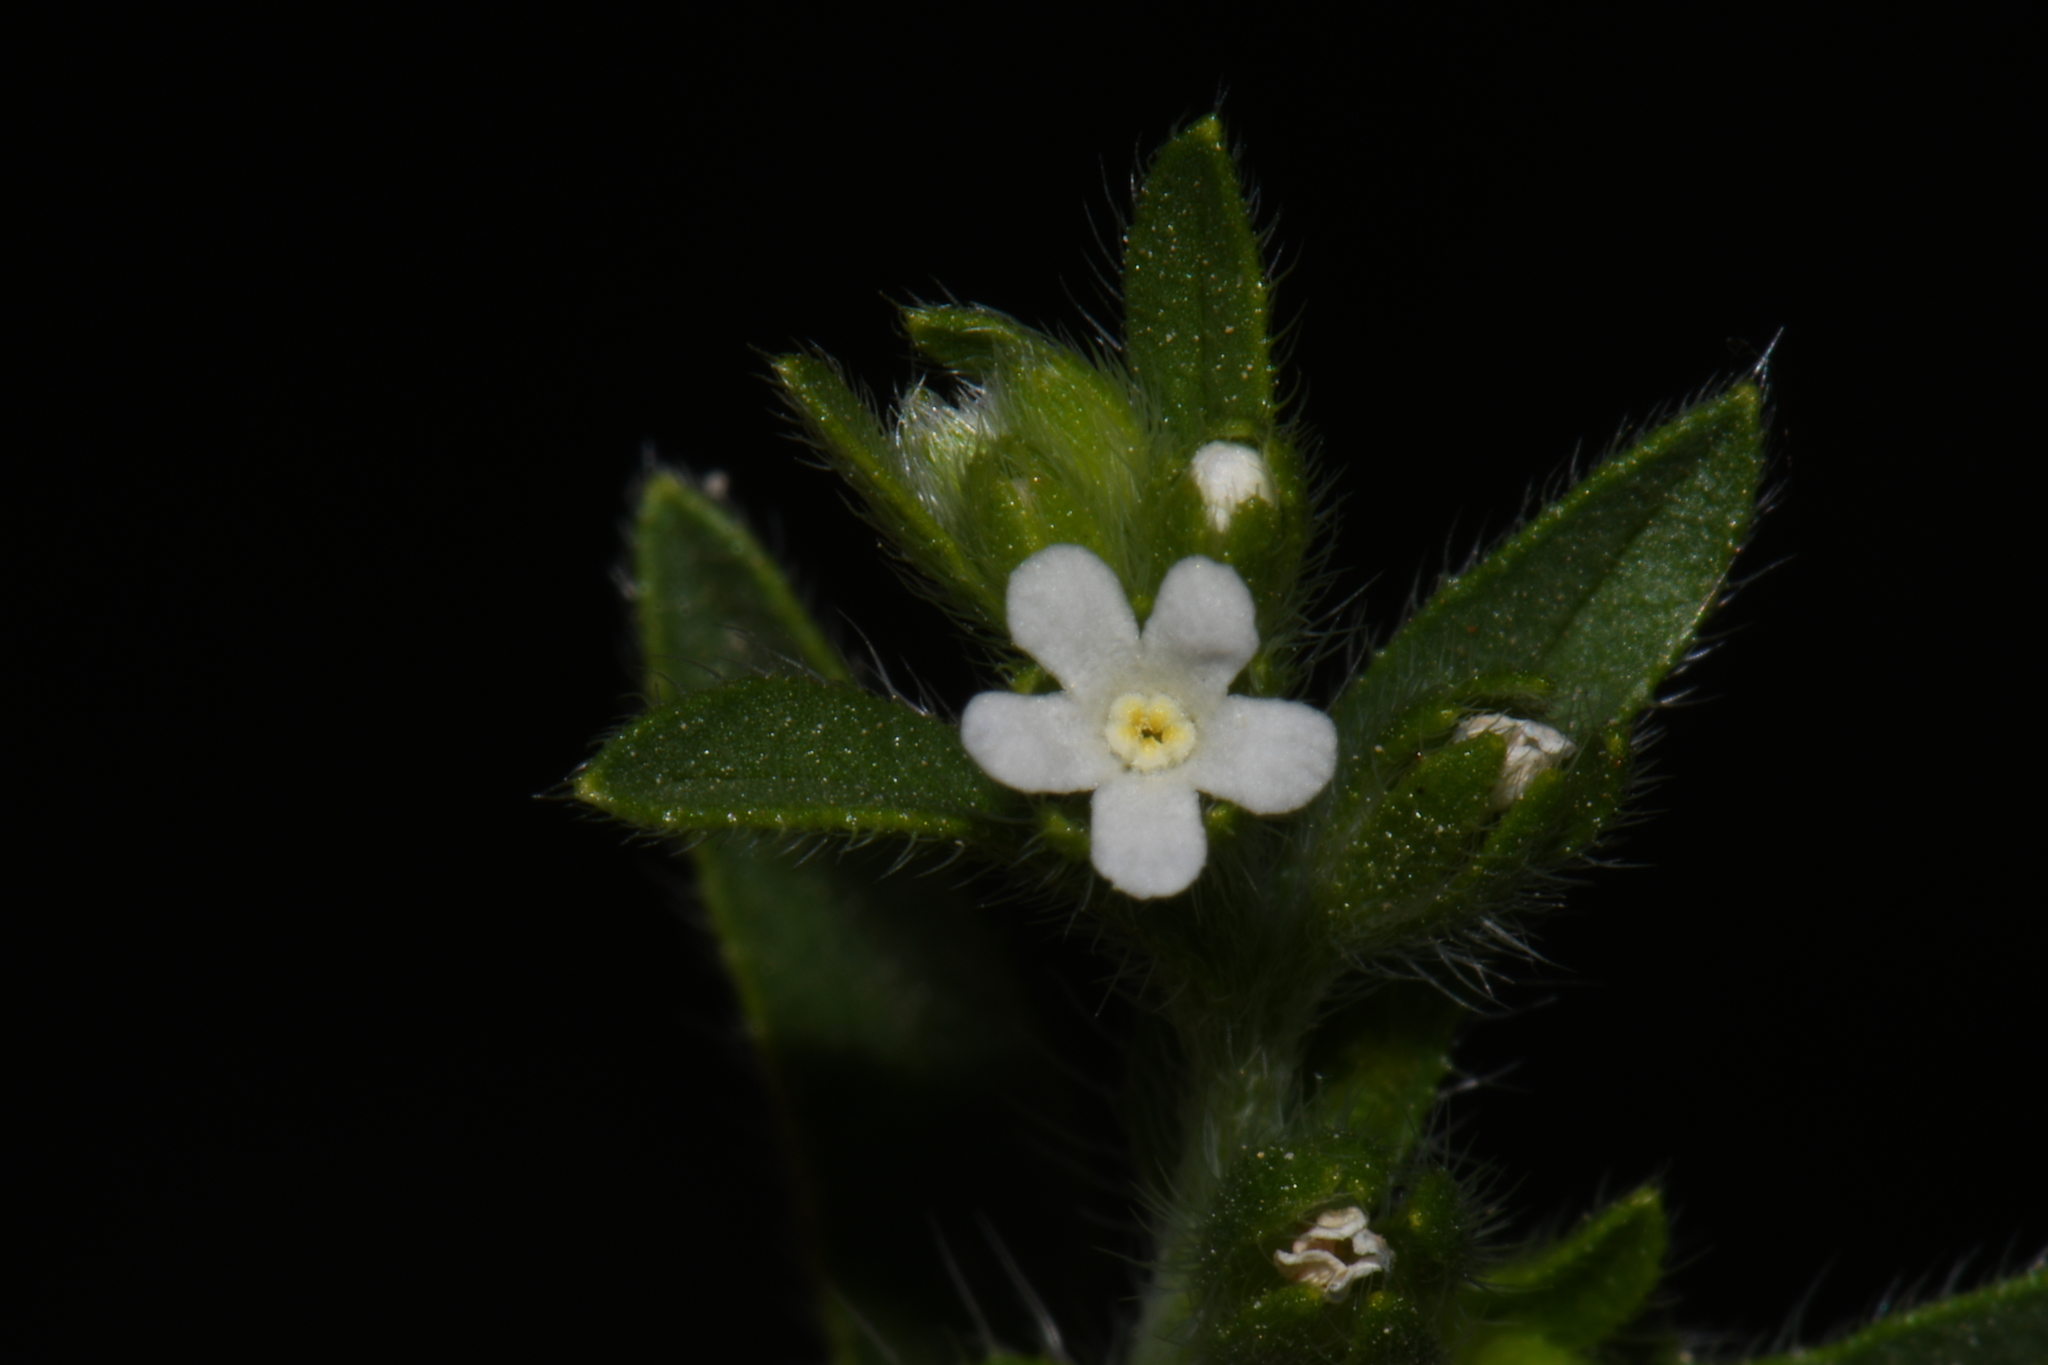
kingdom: Plantae
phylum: Tracheophyta
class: Magnoliopsida
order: Boraginales
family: Boraginaceae
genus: Lappula
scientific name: Lappula occidentalis
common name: Western stickseed
